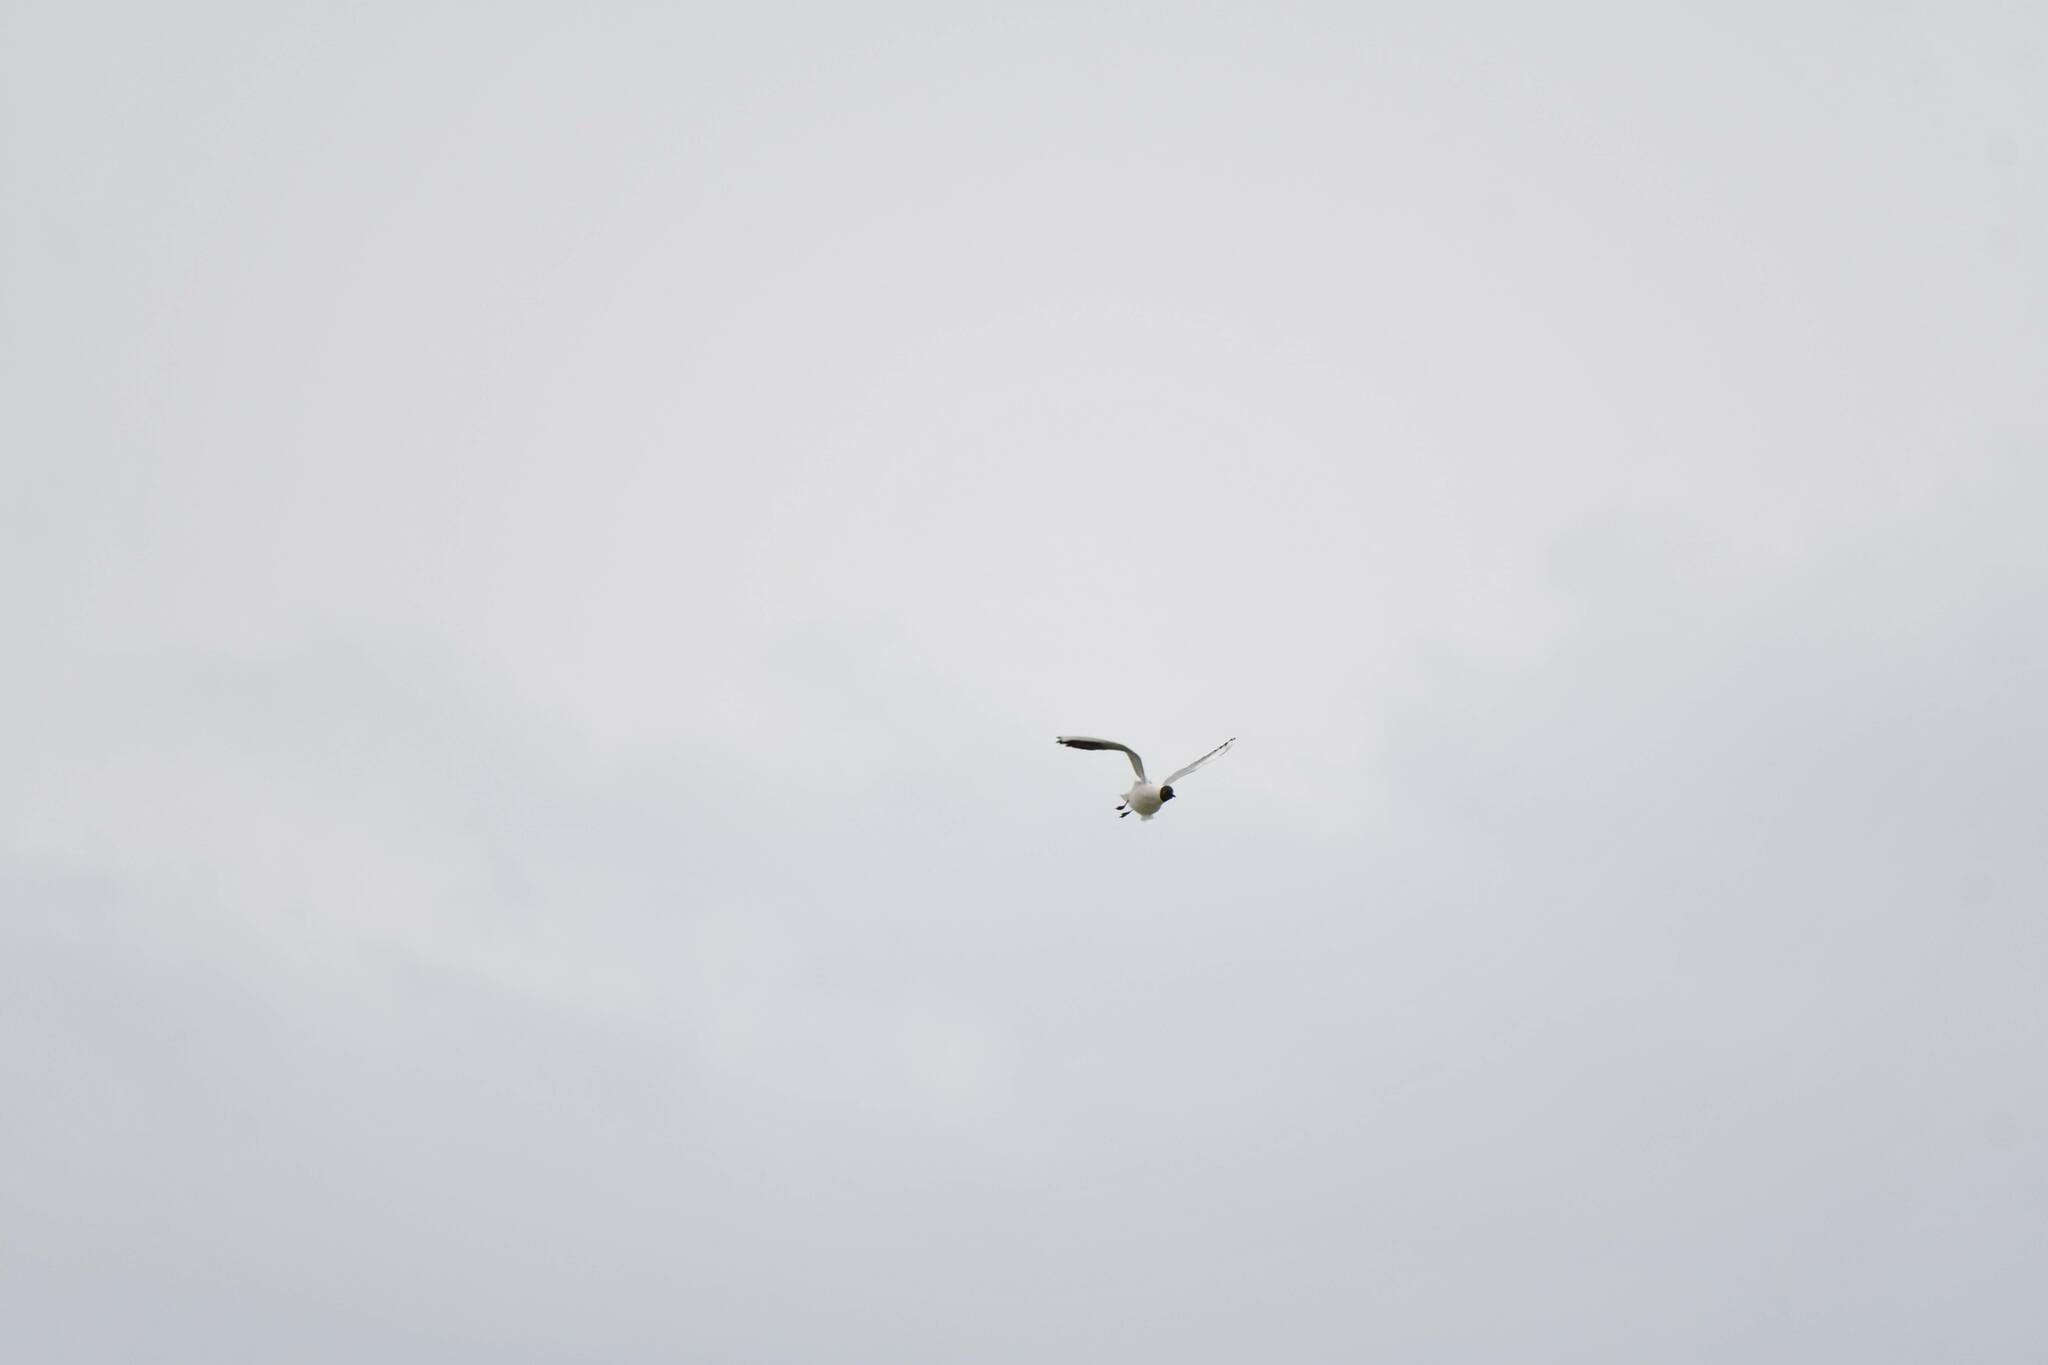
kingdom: Animalia
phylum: Chordata
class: Aves
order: Charadriiformes
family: Laridae
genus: Chroicocephalus
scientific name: Chroicocephalus ridibundus
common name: Black-headed gull
